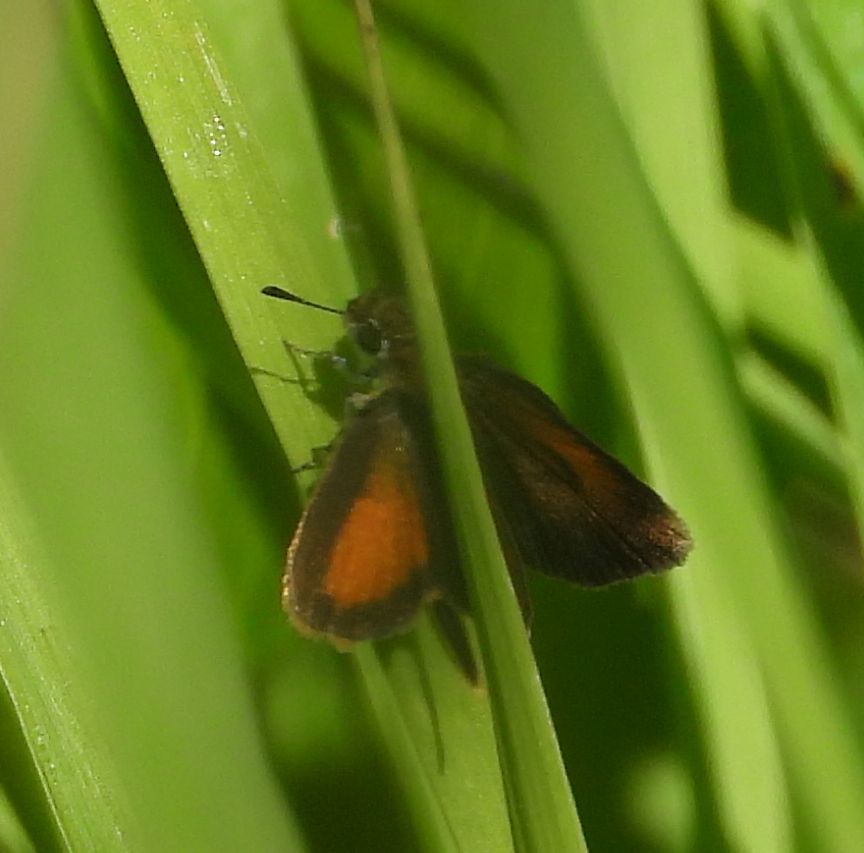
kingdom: Animalia
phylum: Arthropoda
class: Insecta
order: Lepidoptera
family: Hesperiidae
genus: Ancyloxypha
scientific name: Ancyloxypha numitor
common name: Least skipper
